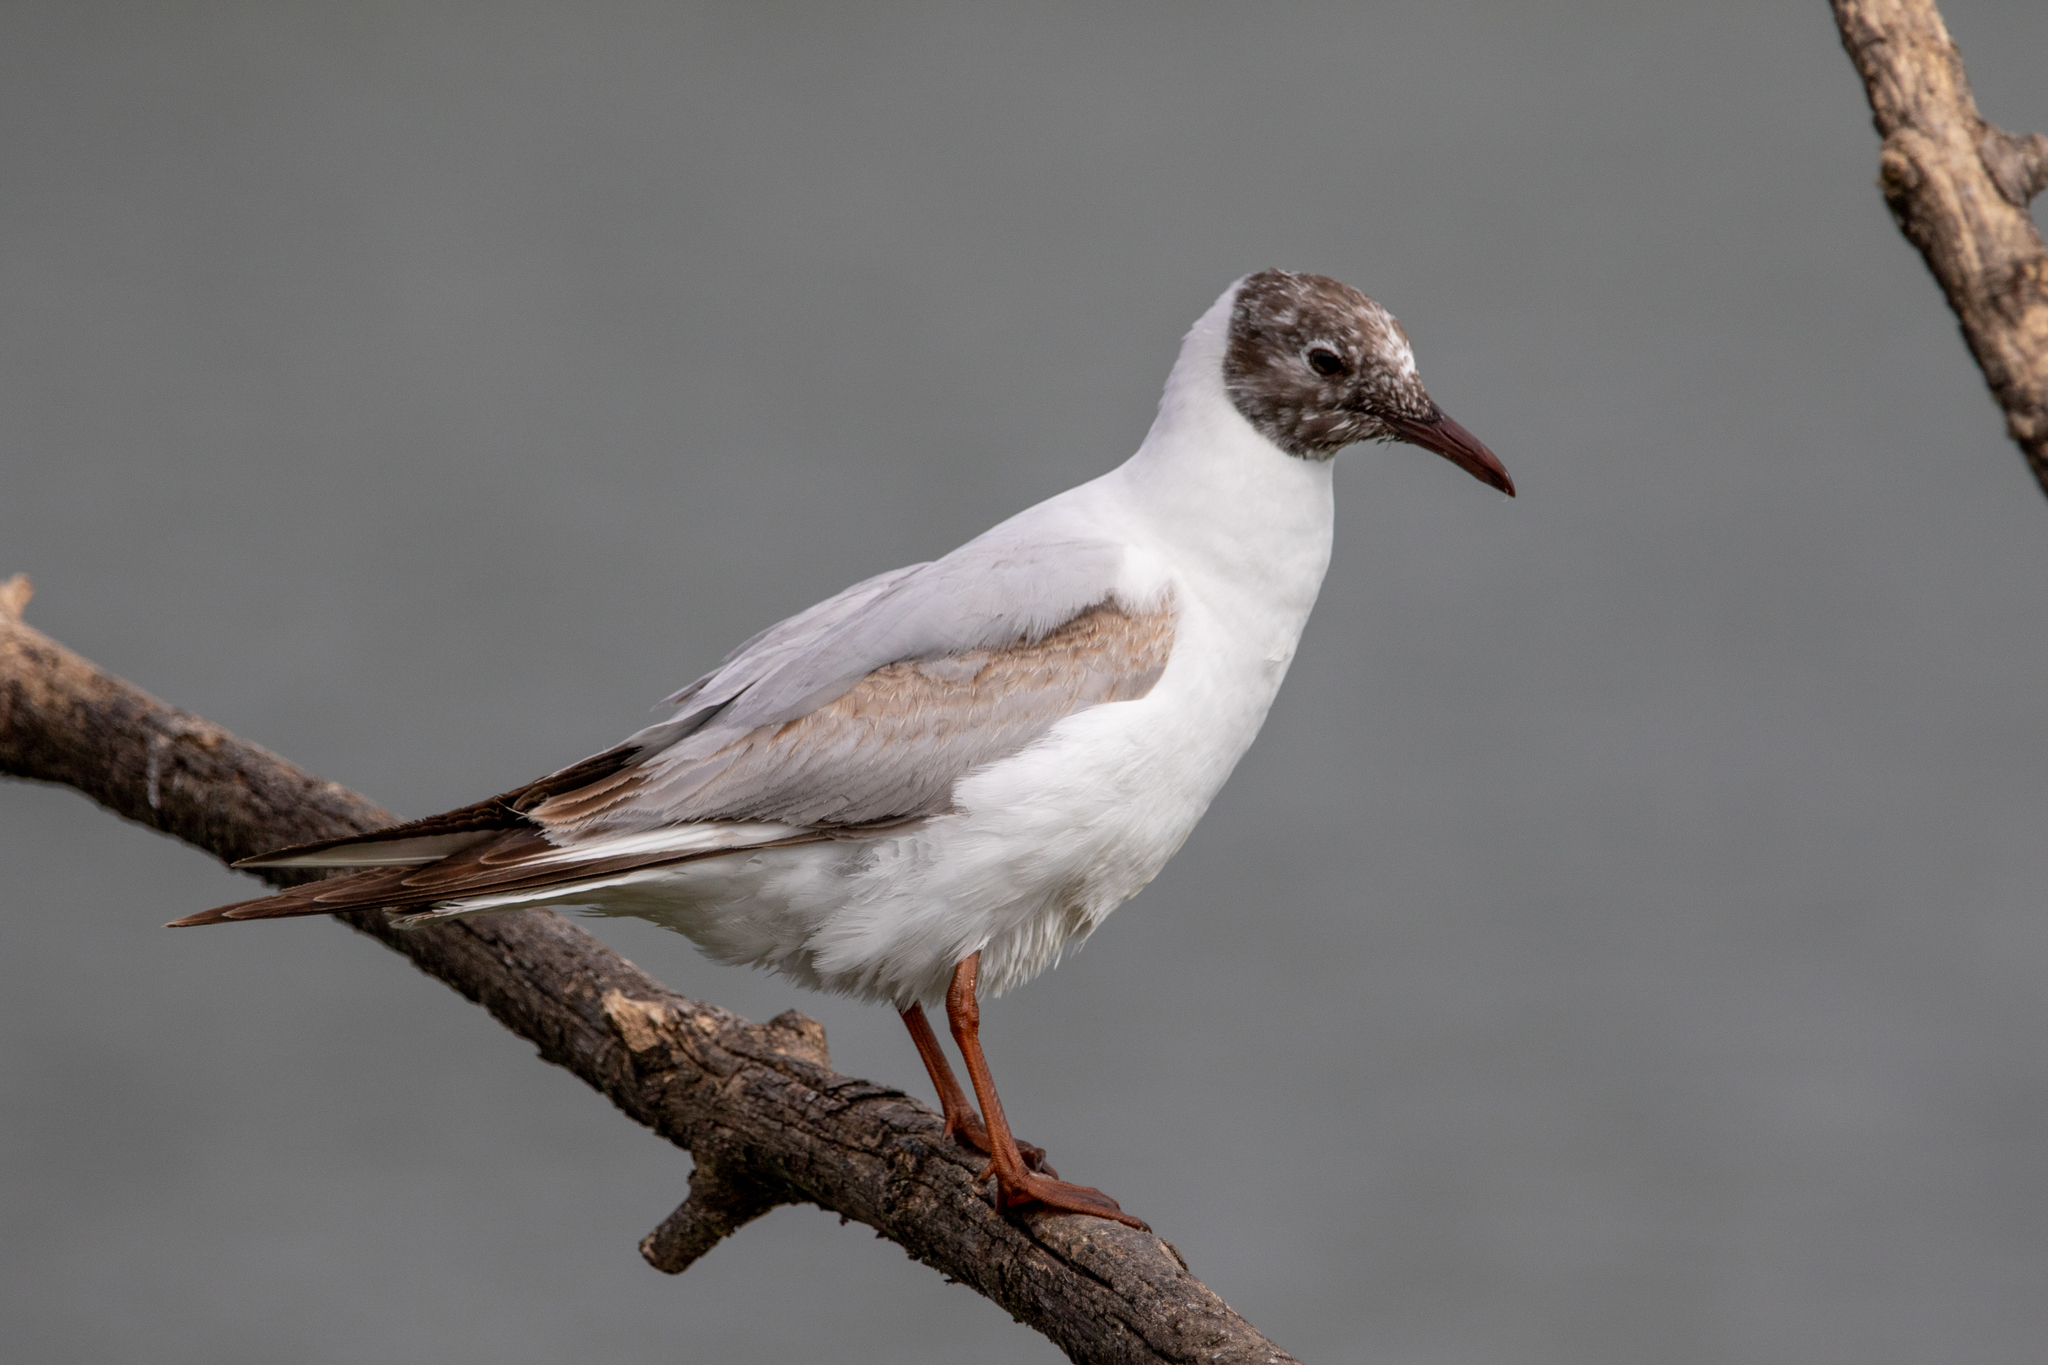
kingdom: Animalia
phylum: Chordata
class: Aves
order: Charadriiformes
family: Laridae
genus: Chroicocephalus
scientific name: Chroicocephalus ridibundus
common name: Black-headed gull
